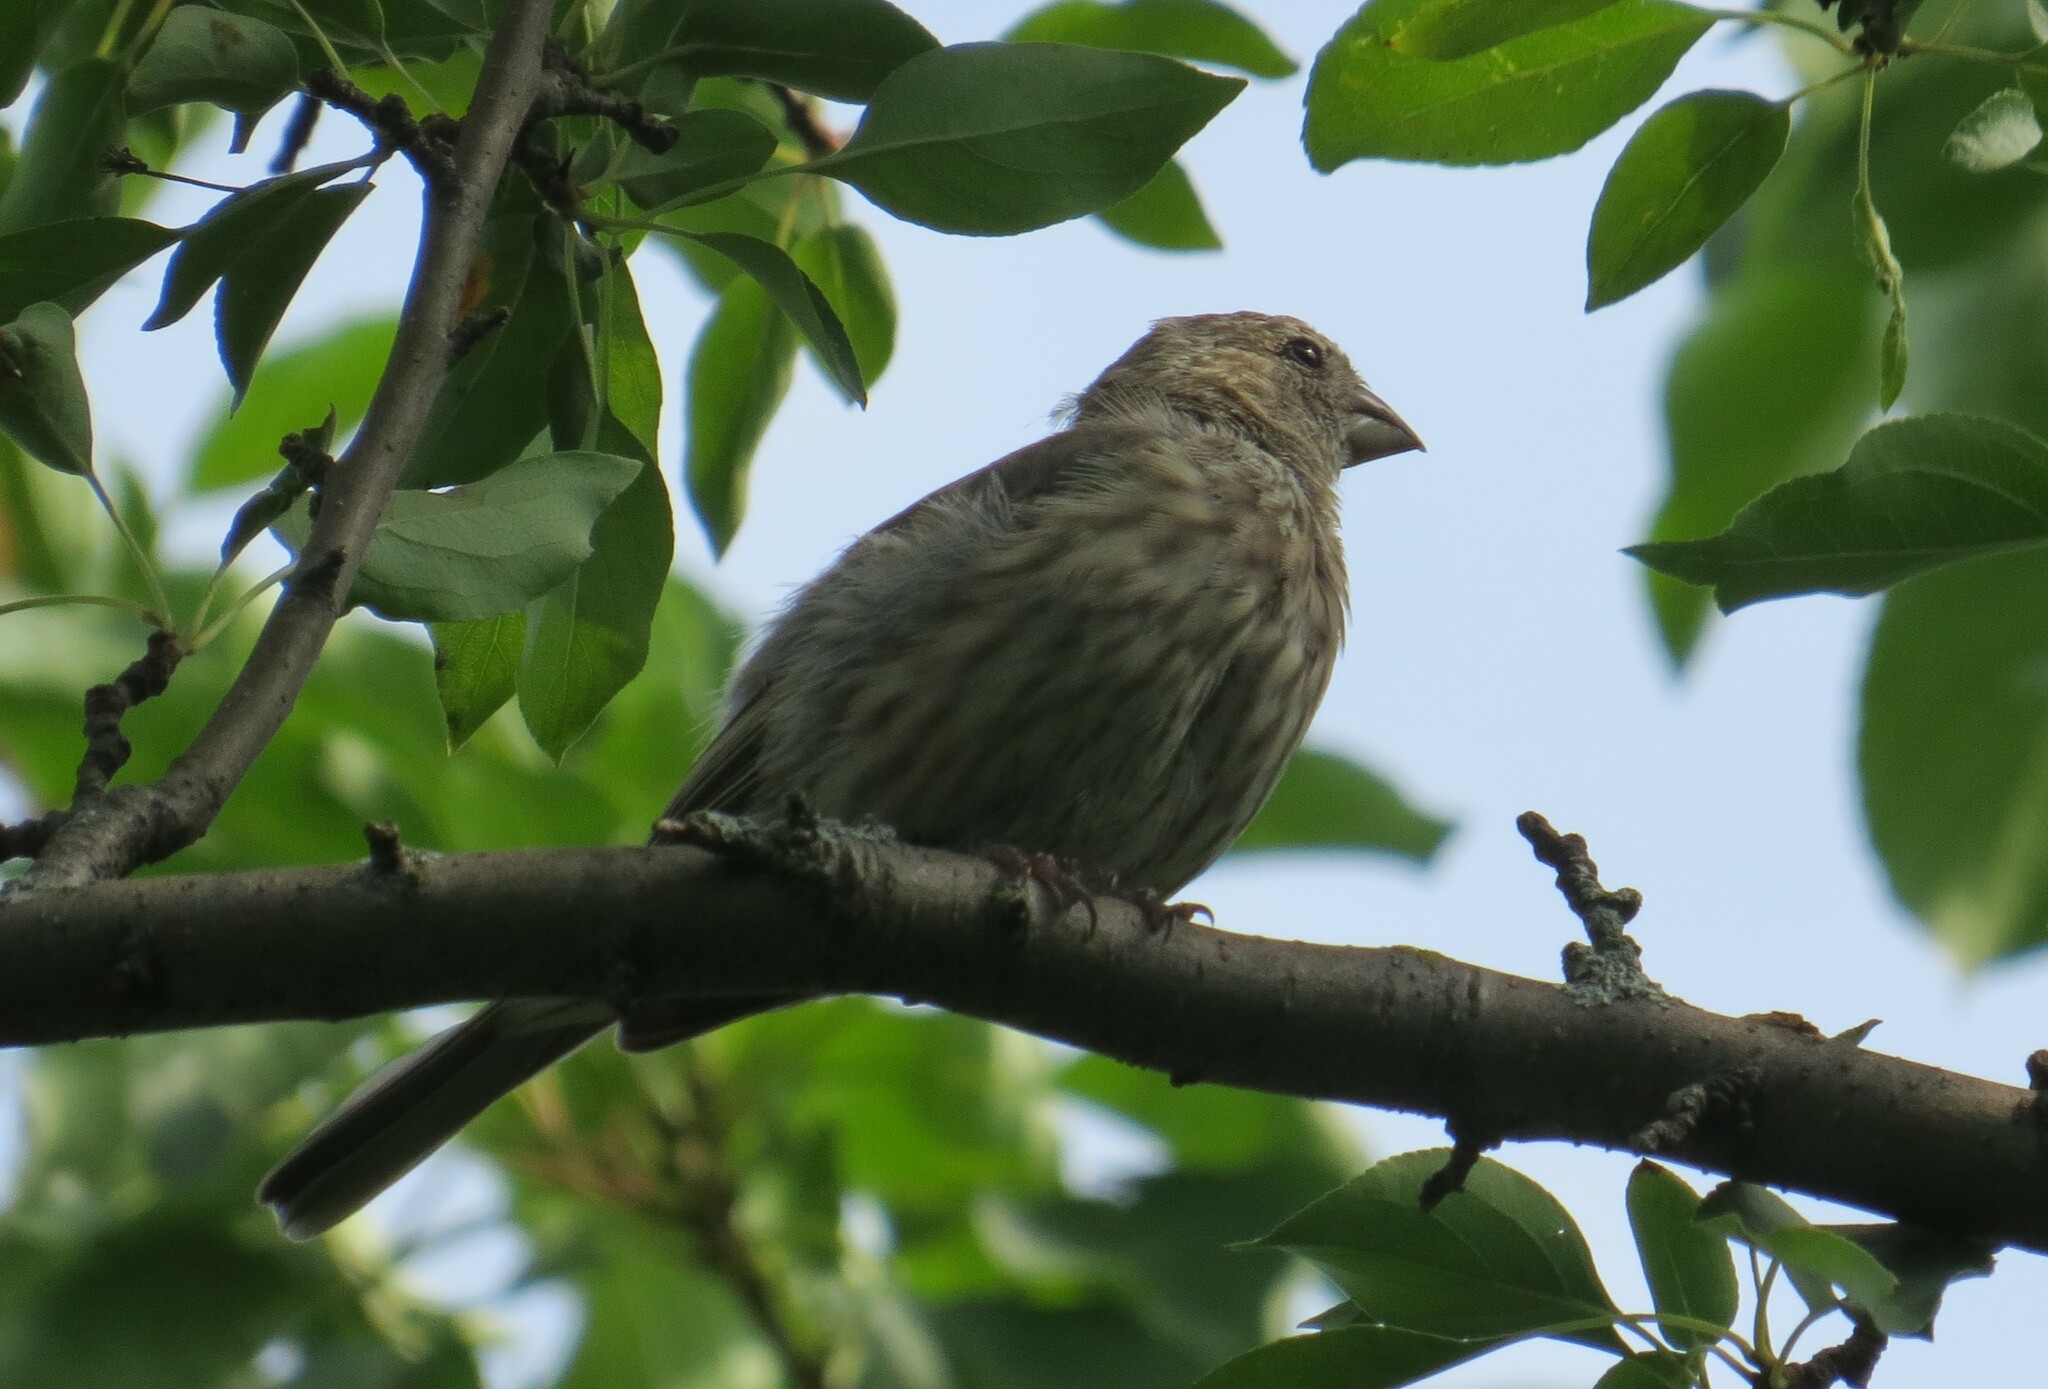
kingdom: Animalia
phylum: Chordata
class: Aves
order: Passeriformes
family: Fringillidae
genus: Haemorhous
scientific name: Haemorhous mexicanus
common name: House finch
